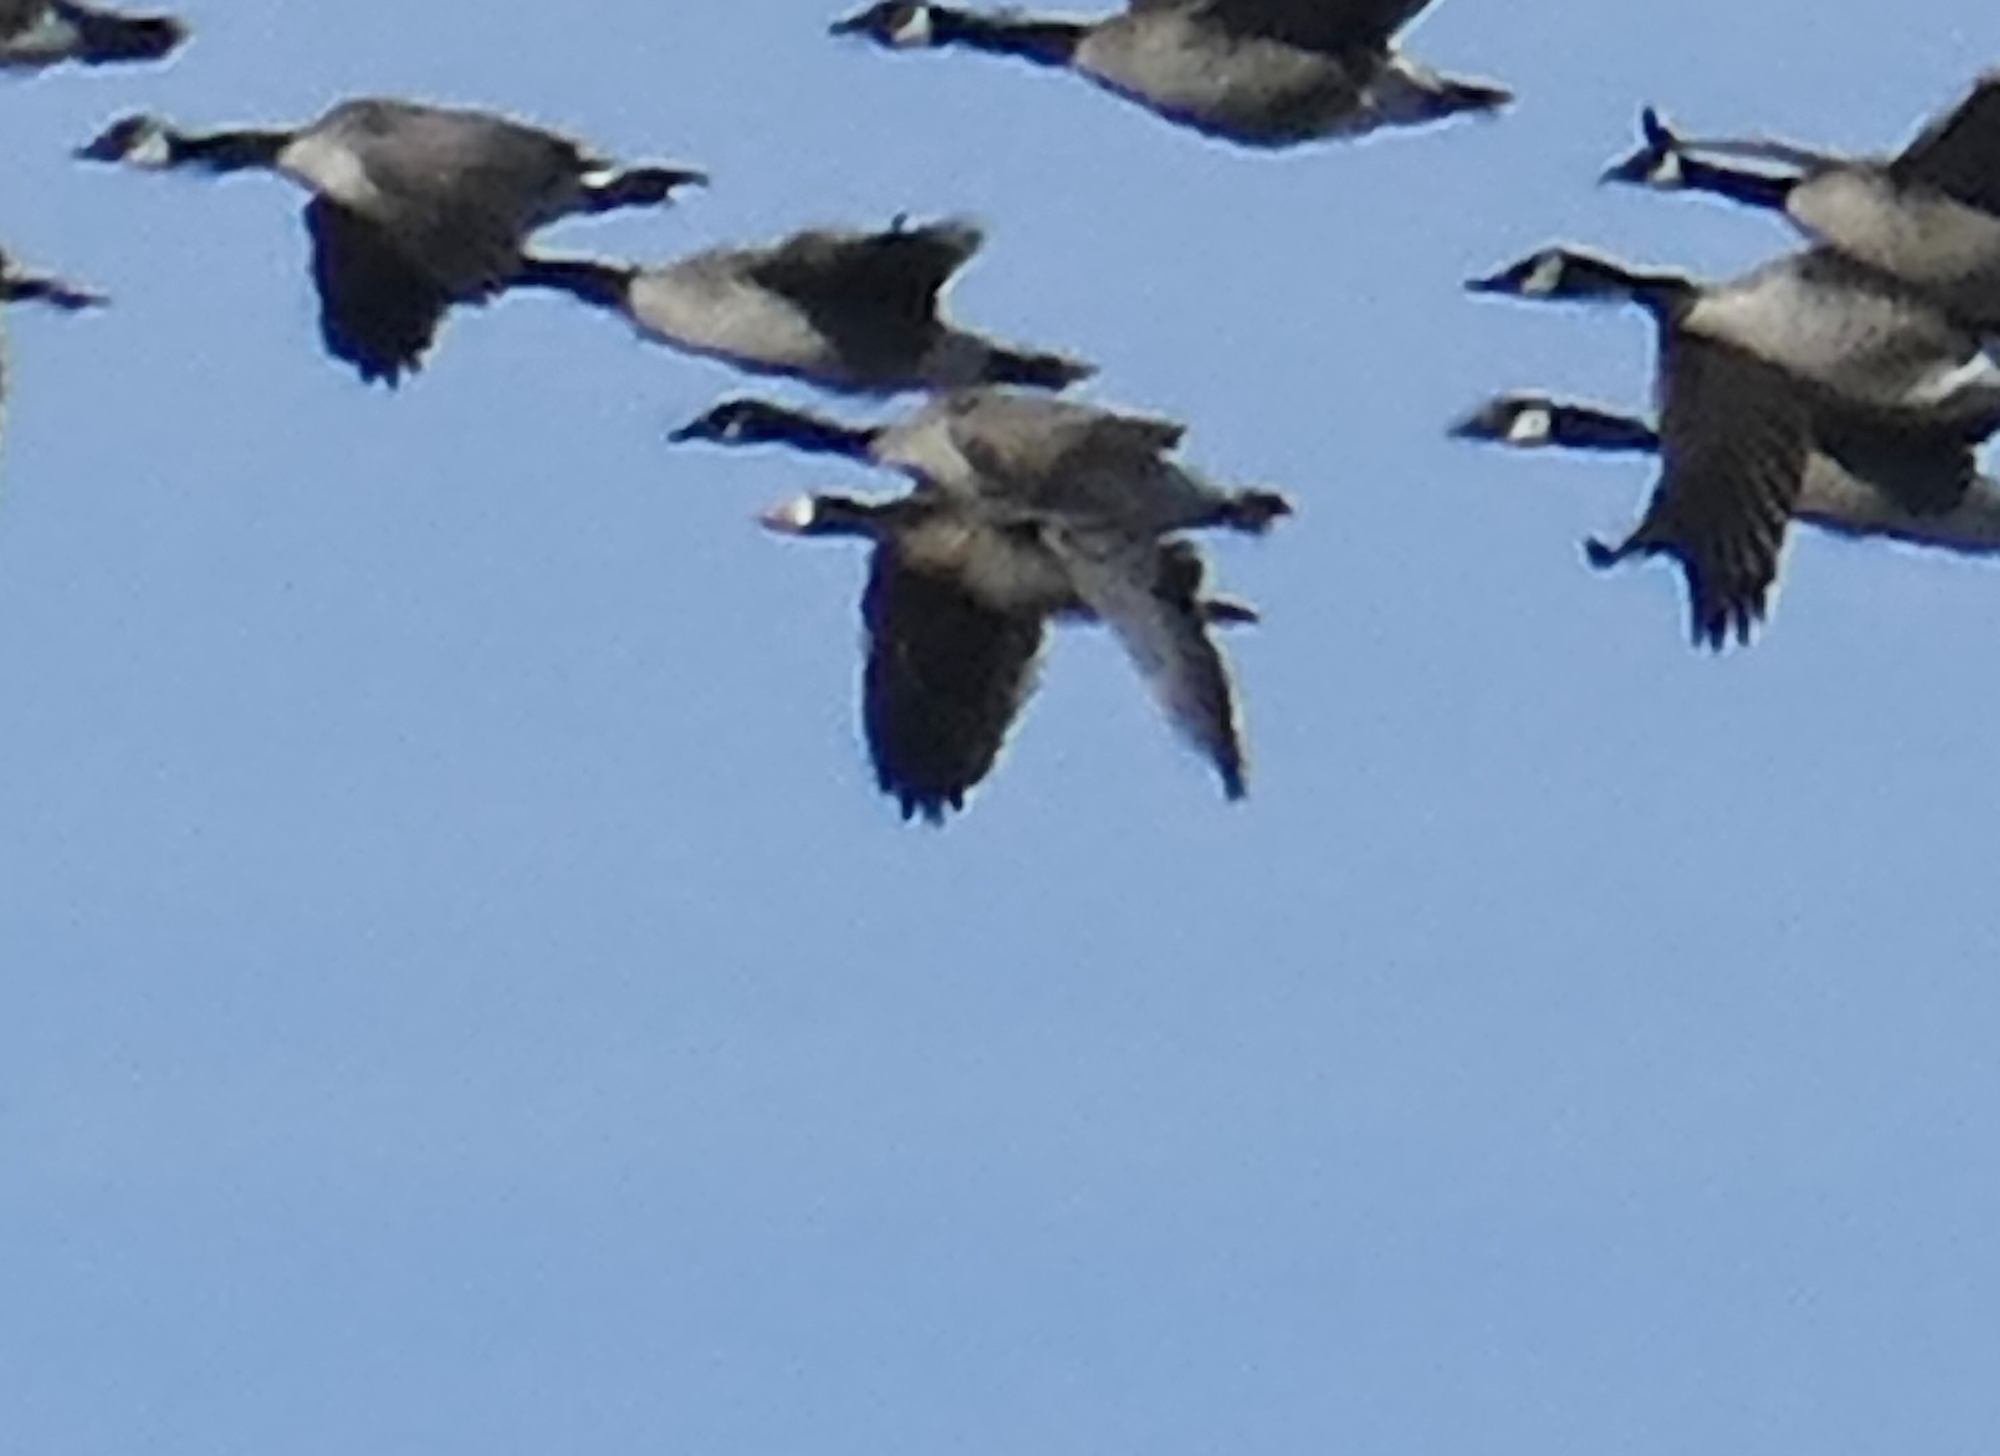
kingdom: Animalia
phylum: Chordata
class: Aves
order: Anseriformes
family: Anatidae
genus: Anser
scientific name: Anser albifrons
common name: Greater white-fronted goose
